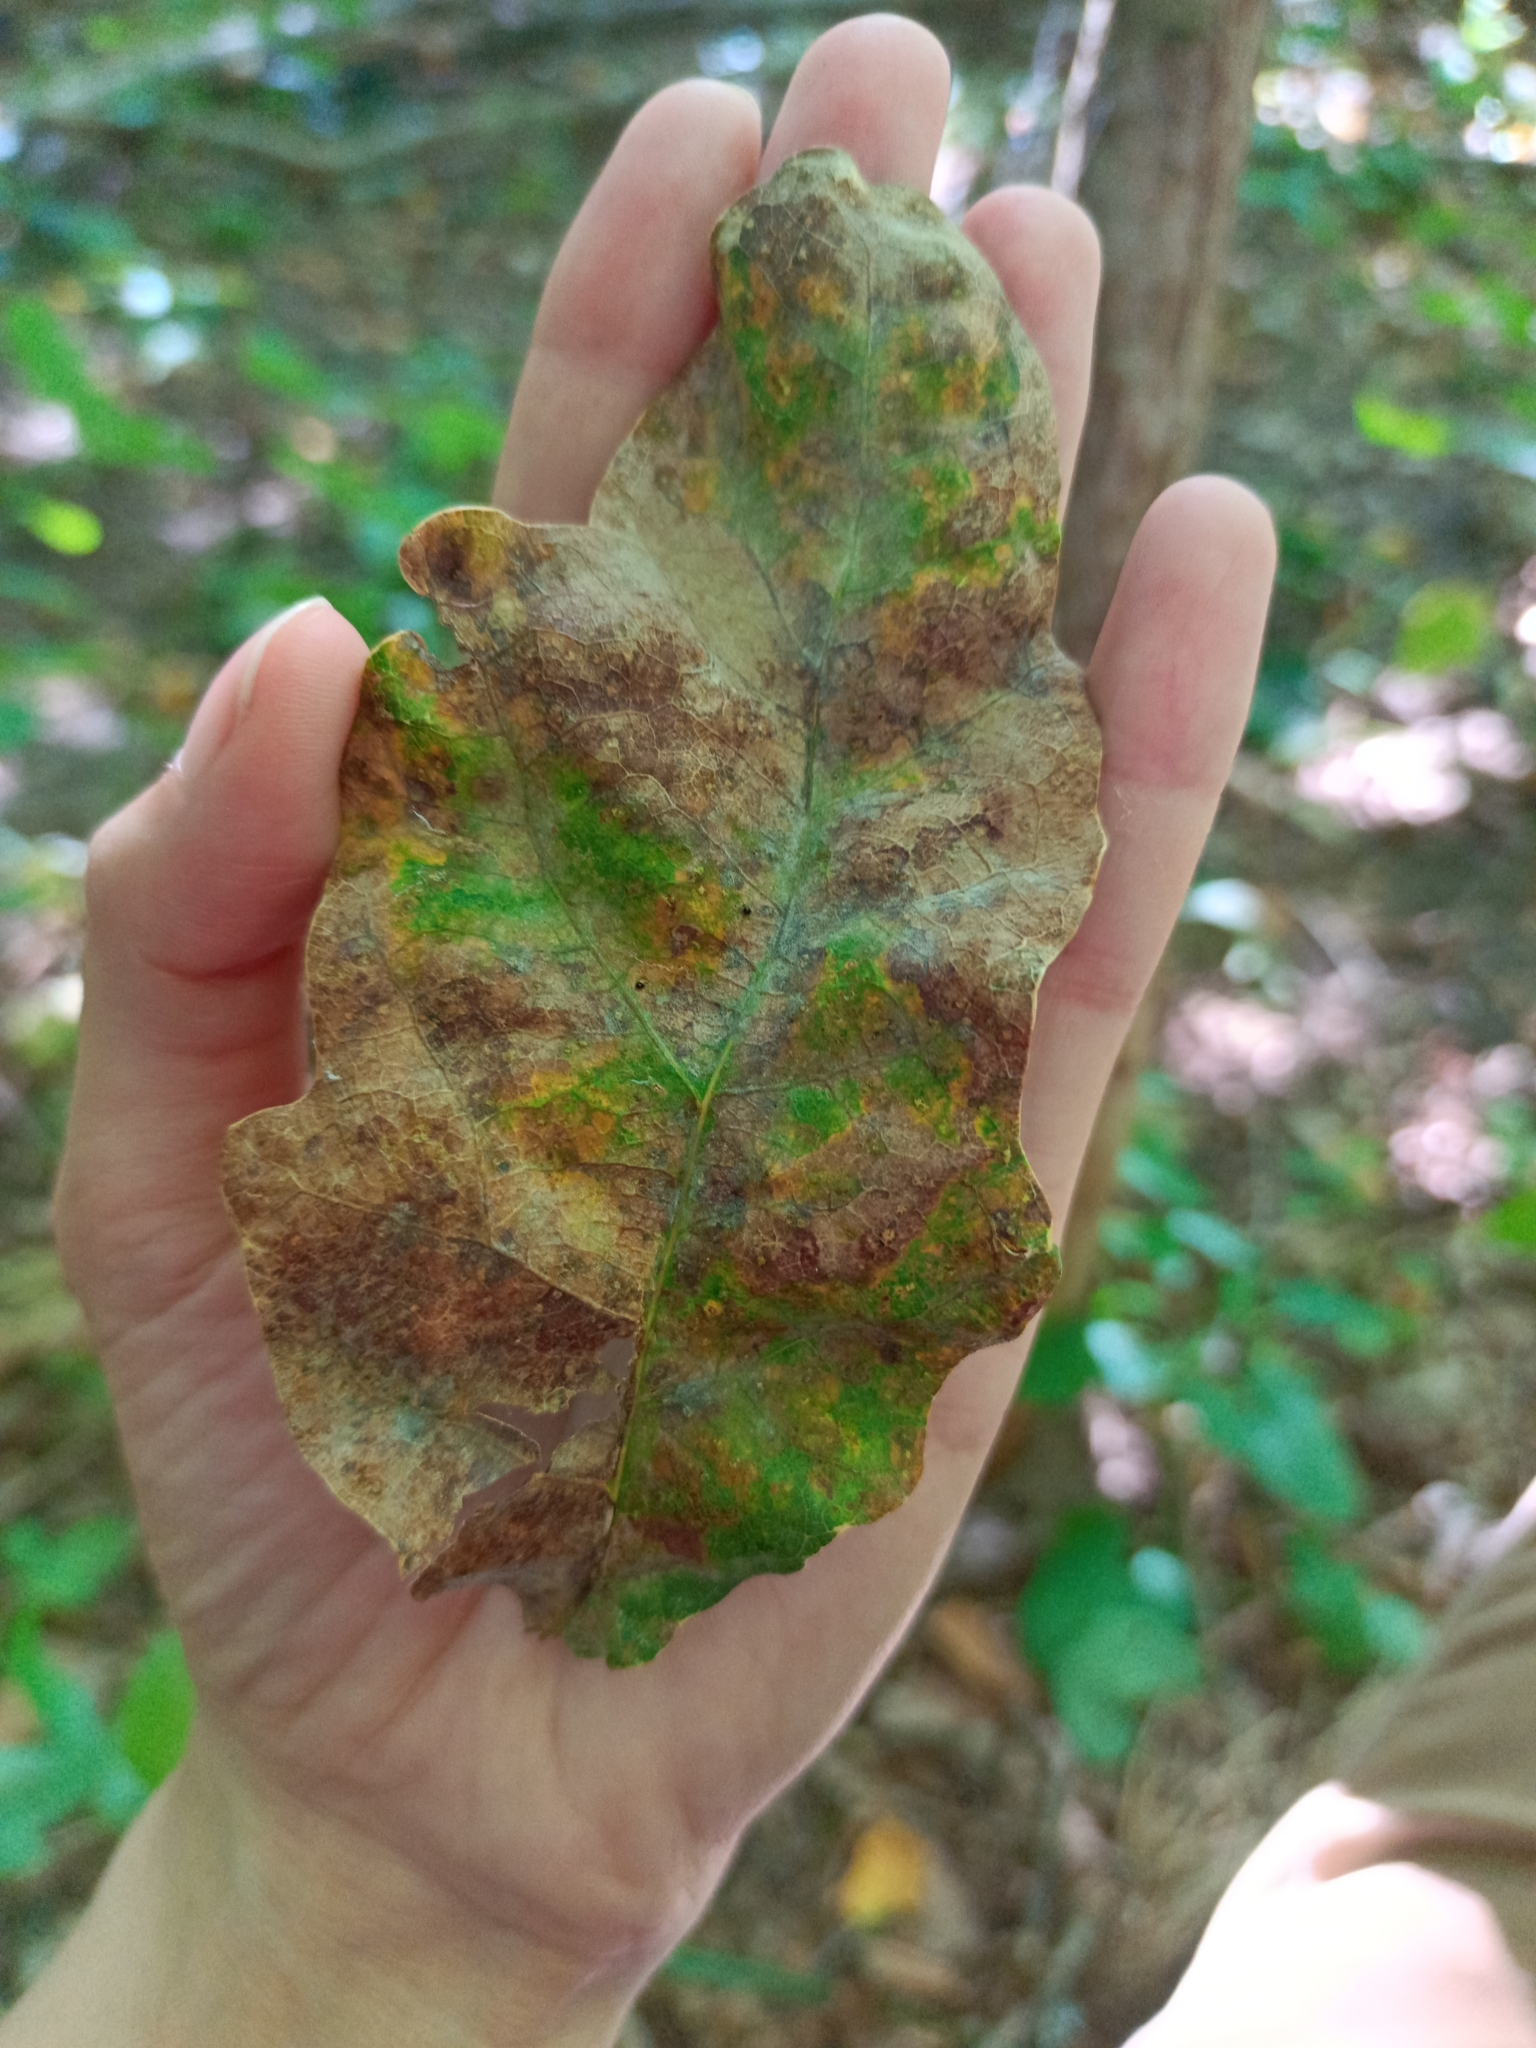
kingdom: Animalia
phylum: Arthropoda
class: Insecta
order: Hymenoptera
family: Cynipidae
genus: Neuroterus
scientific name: Neuroterus numismalis
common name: Silk-button spangle gall
